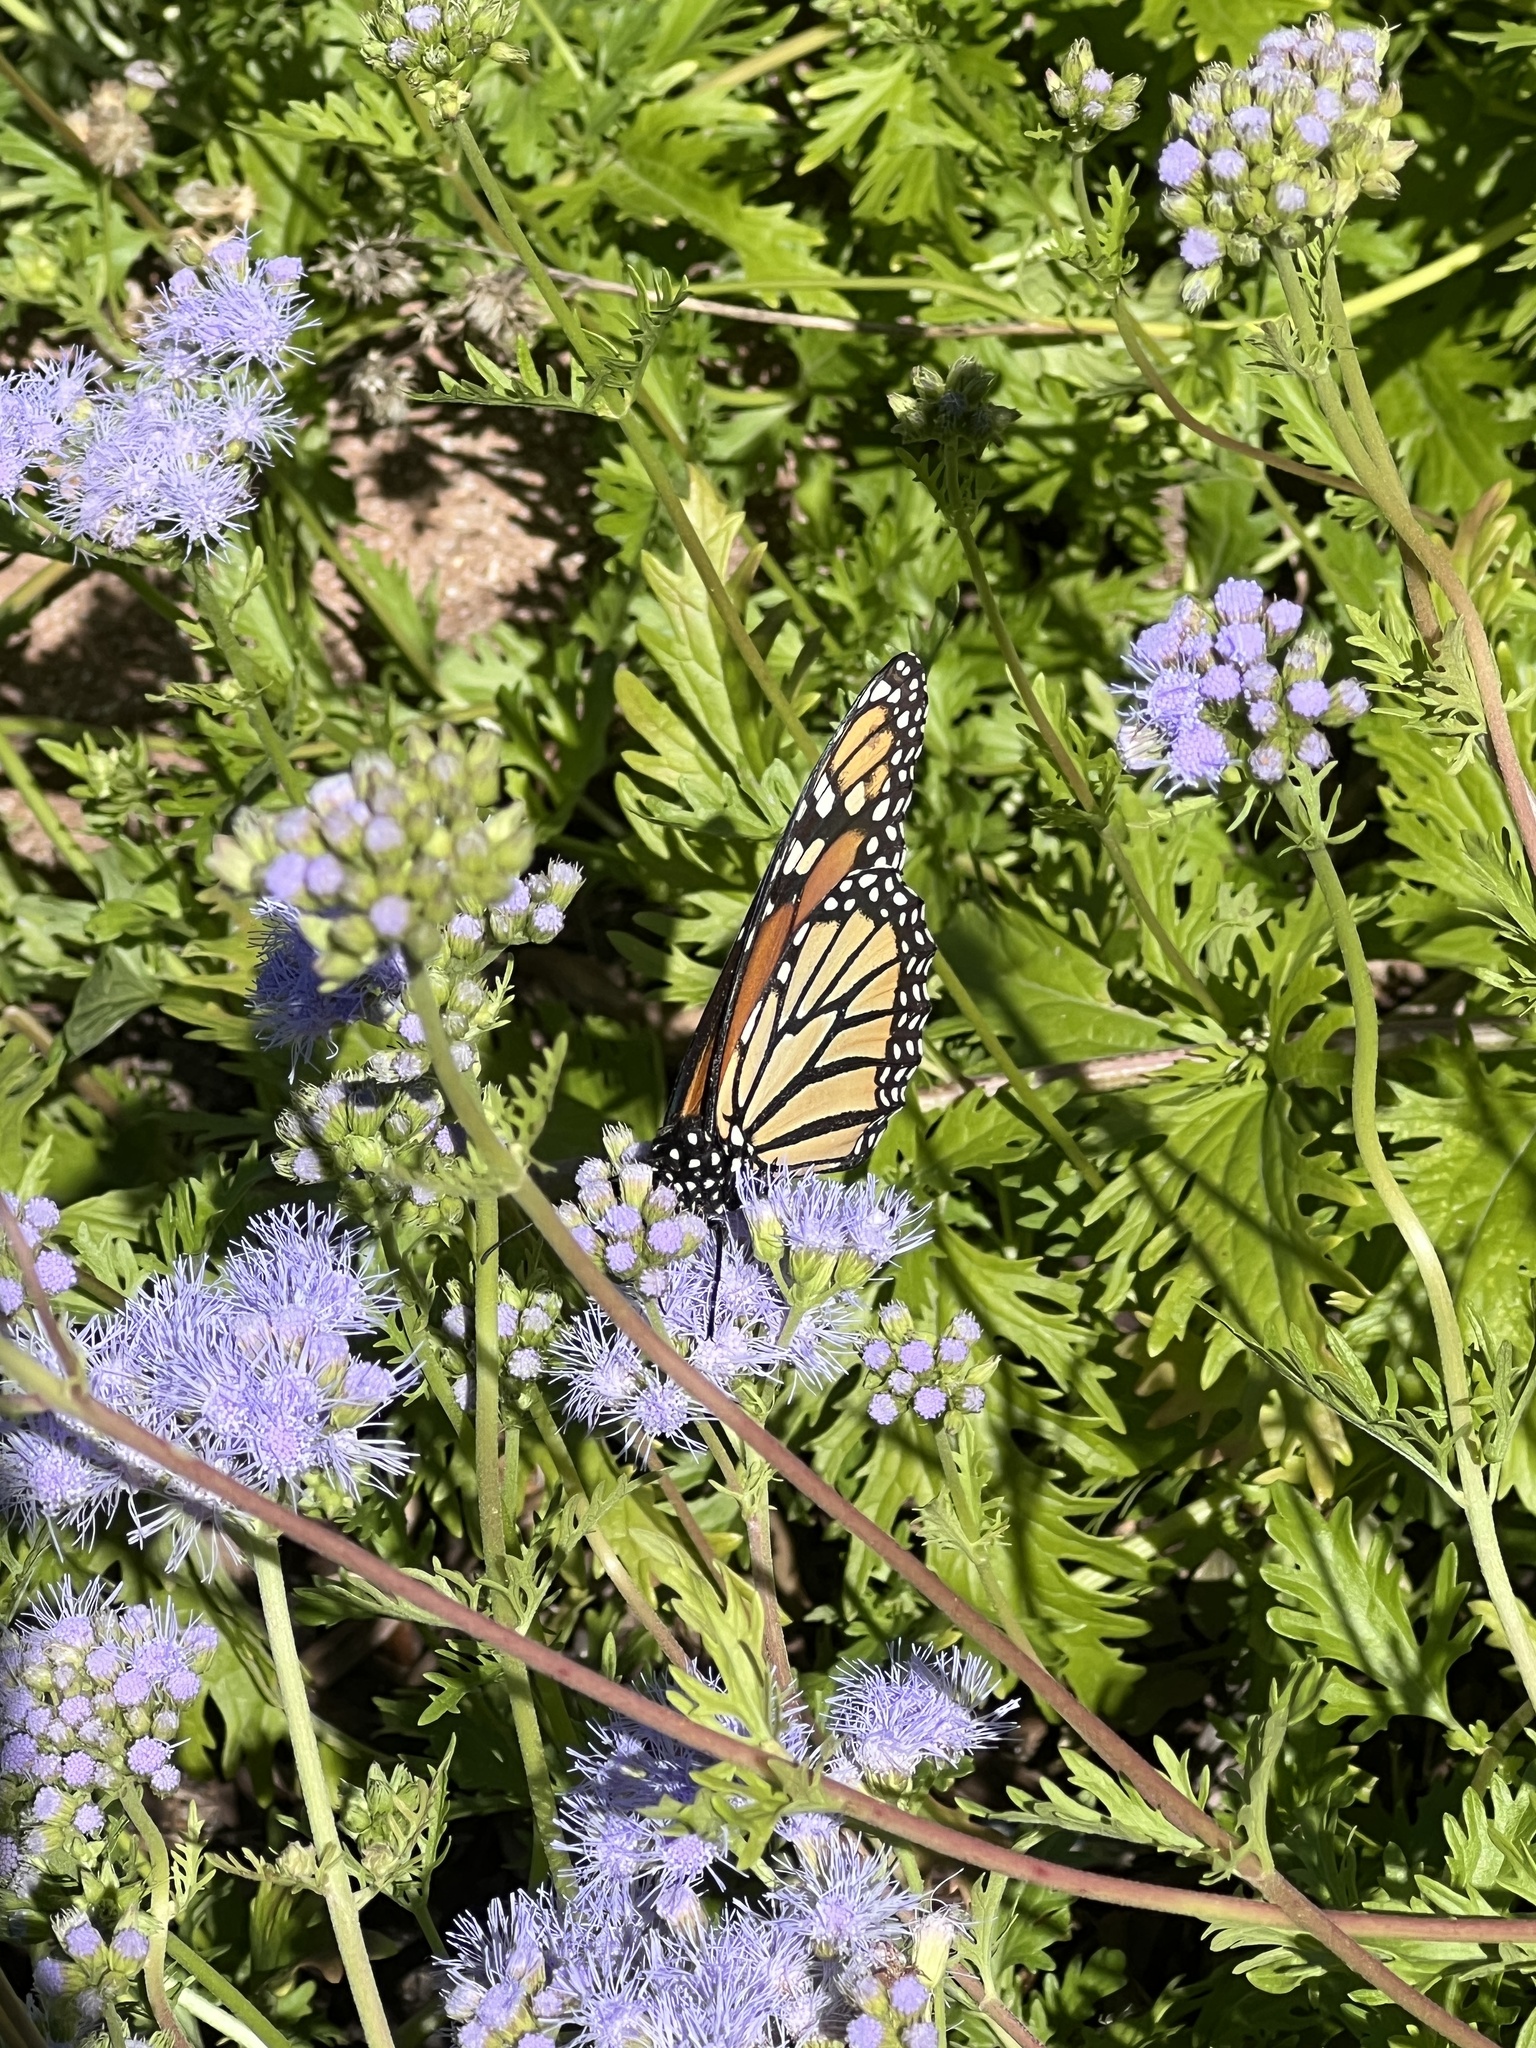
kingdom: Animalia
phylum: Arthropoda
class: Insecta
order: Lepidoptera
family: Nymphalidae
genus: Danaus
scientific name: Danaus plexippus
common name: Monarch
